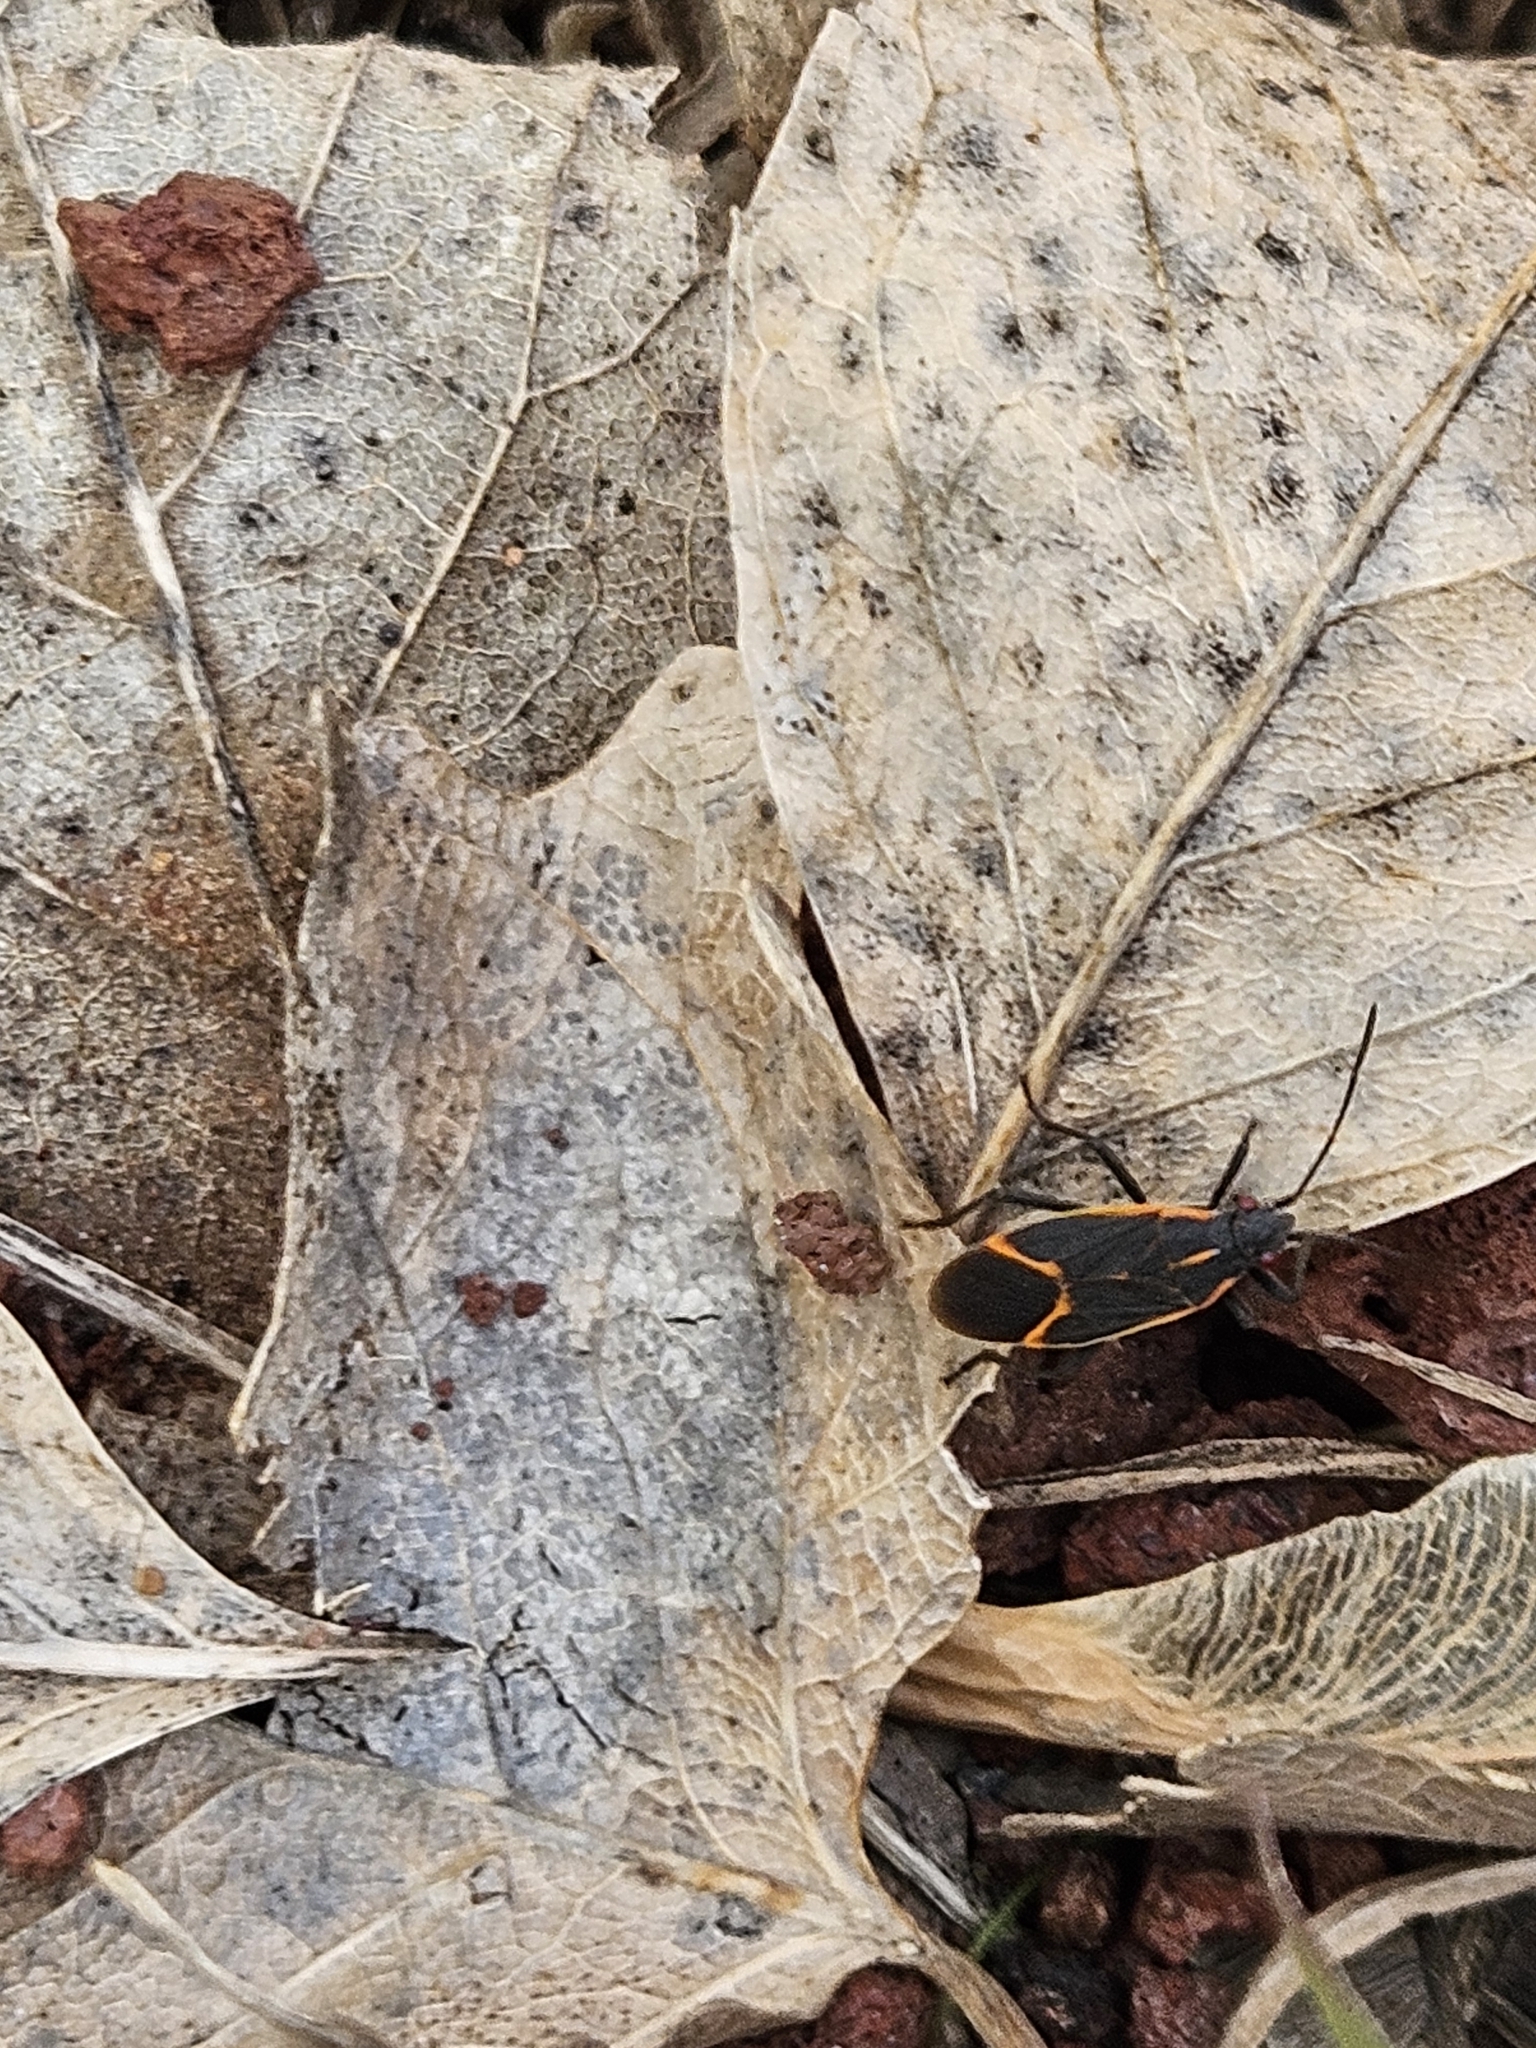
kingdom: Animalia
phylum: Arthropoda
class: Insecta
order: Hemiptera
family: Rhopalidae
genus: Boisea
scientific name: Boisea trivittata
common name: Boxelder bug
